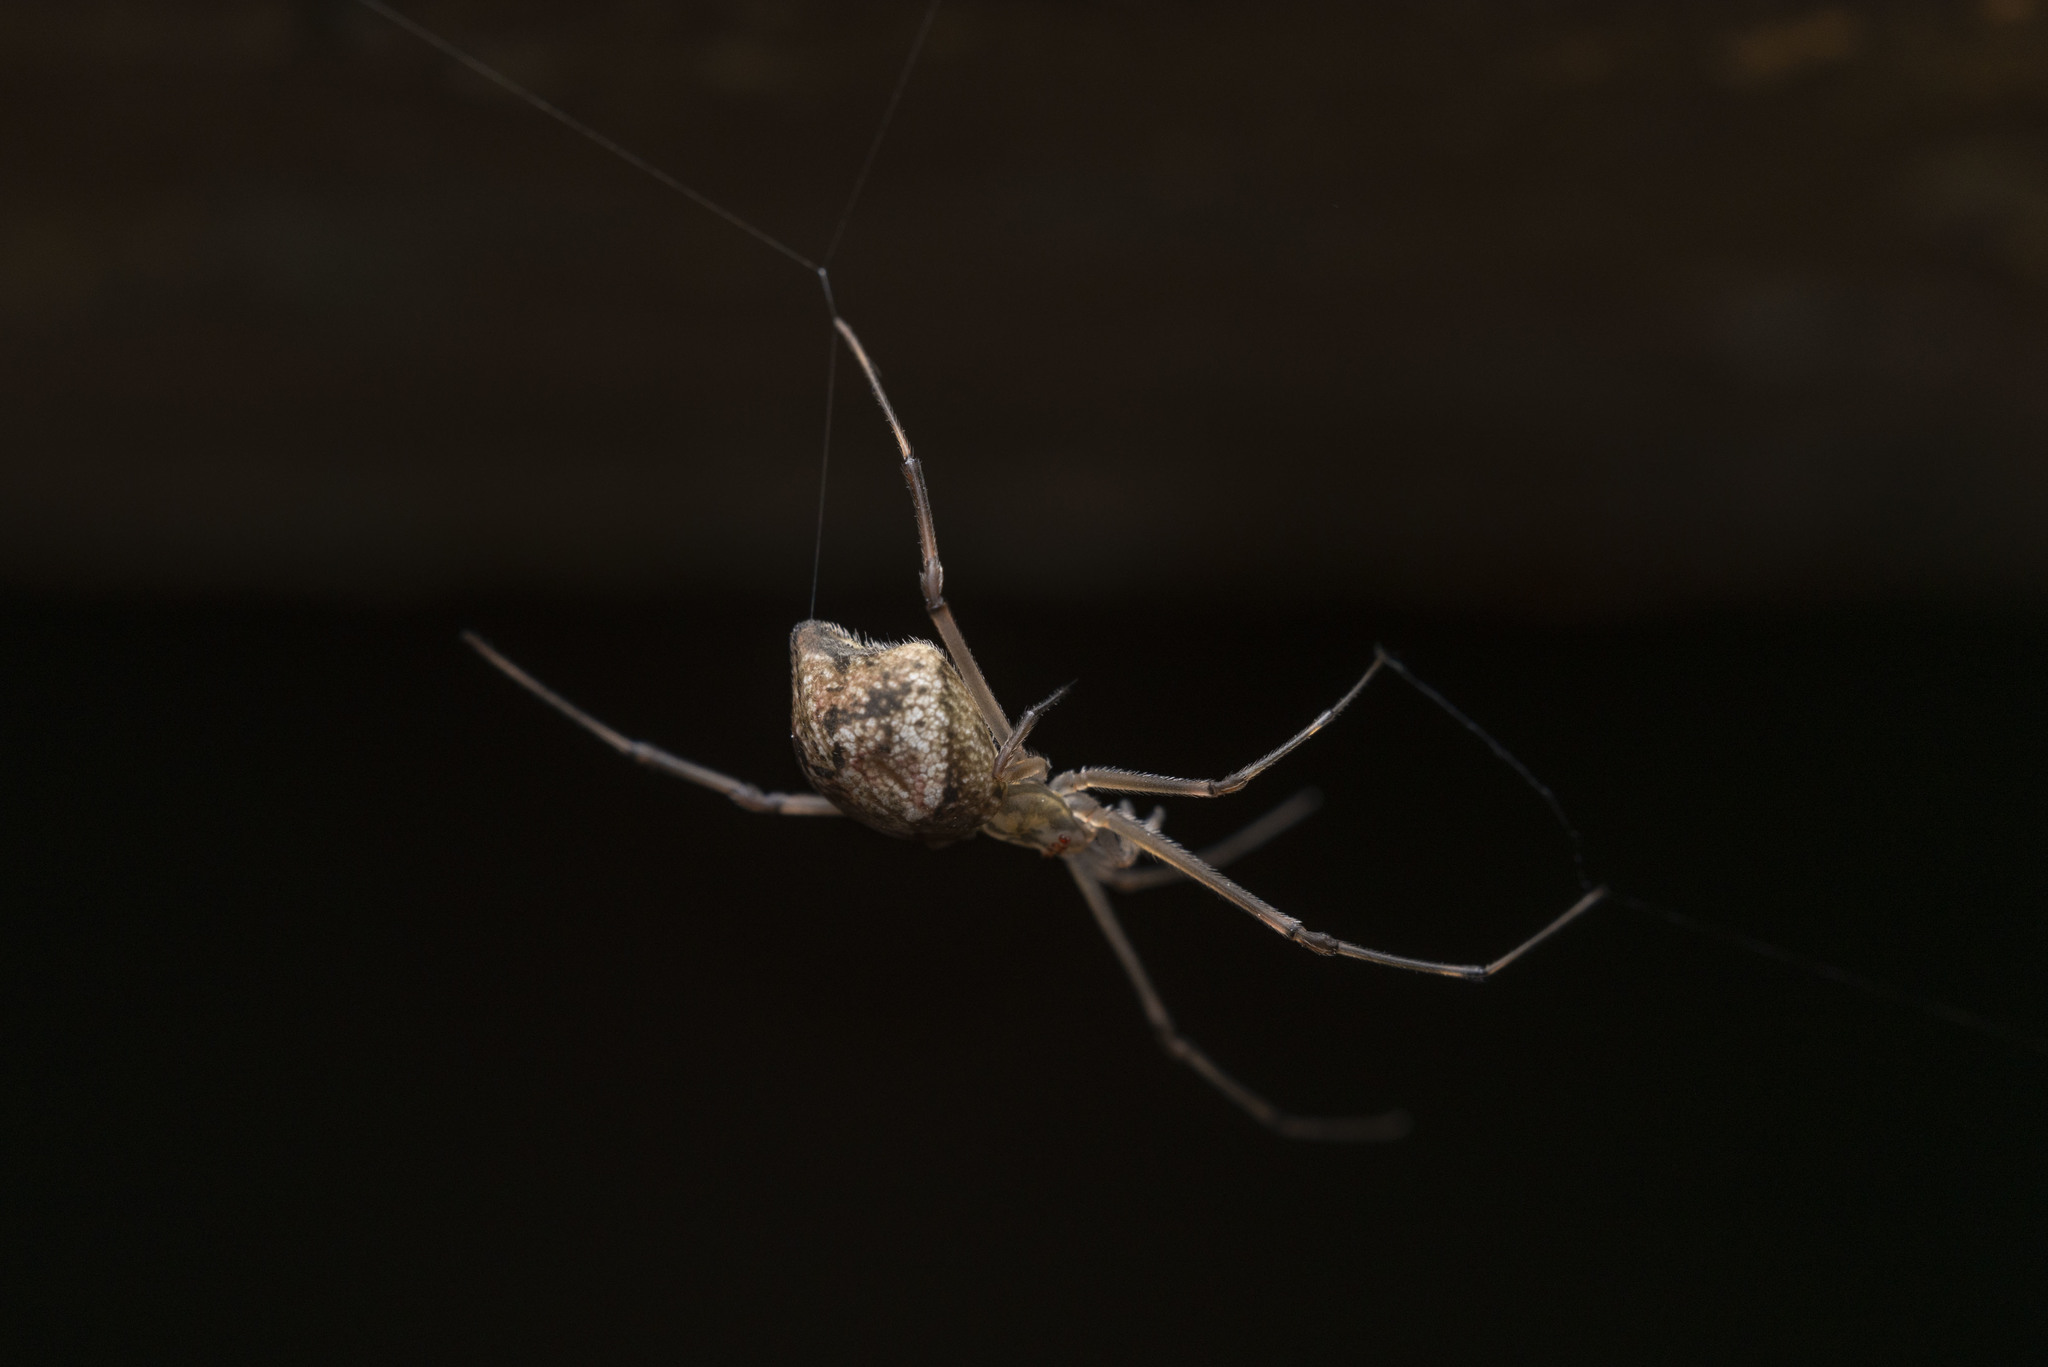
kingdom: Animalia
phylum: Arthropoda
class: Arachnida
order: Araneae
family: Theridiidae
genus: Moneta
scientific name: Moneta mirabilis
